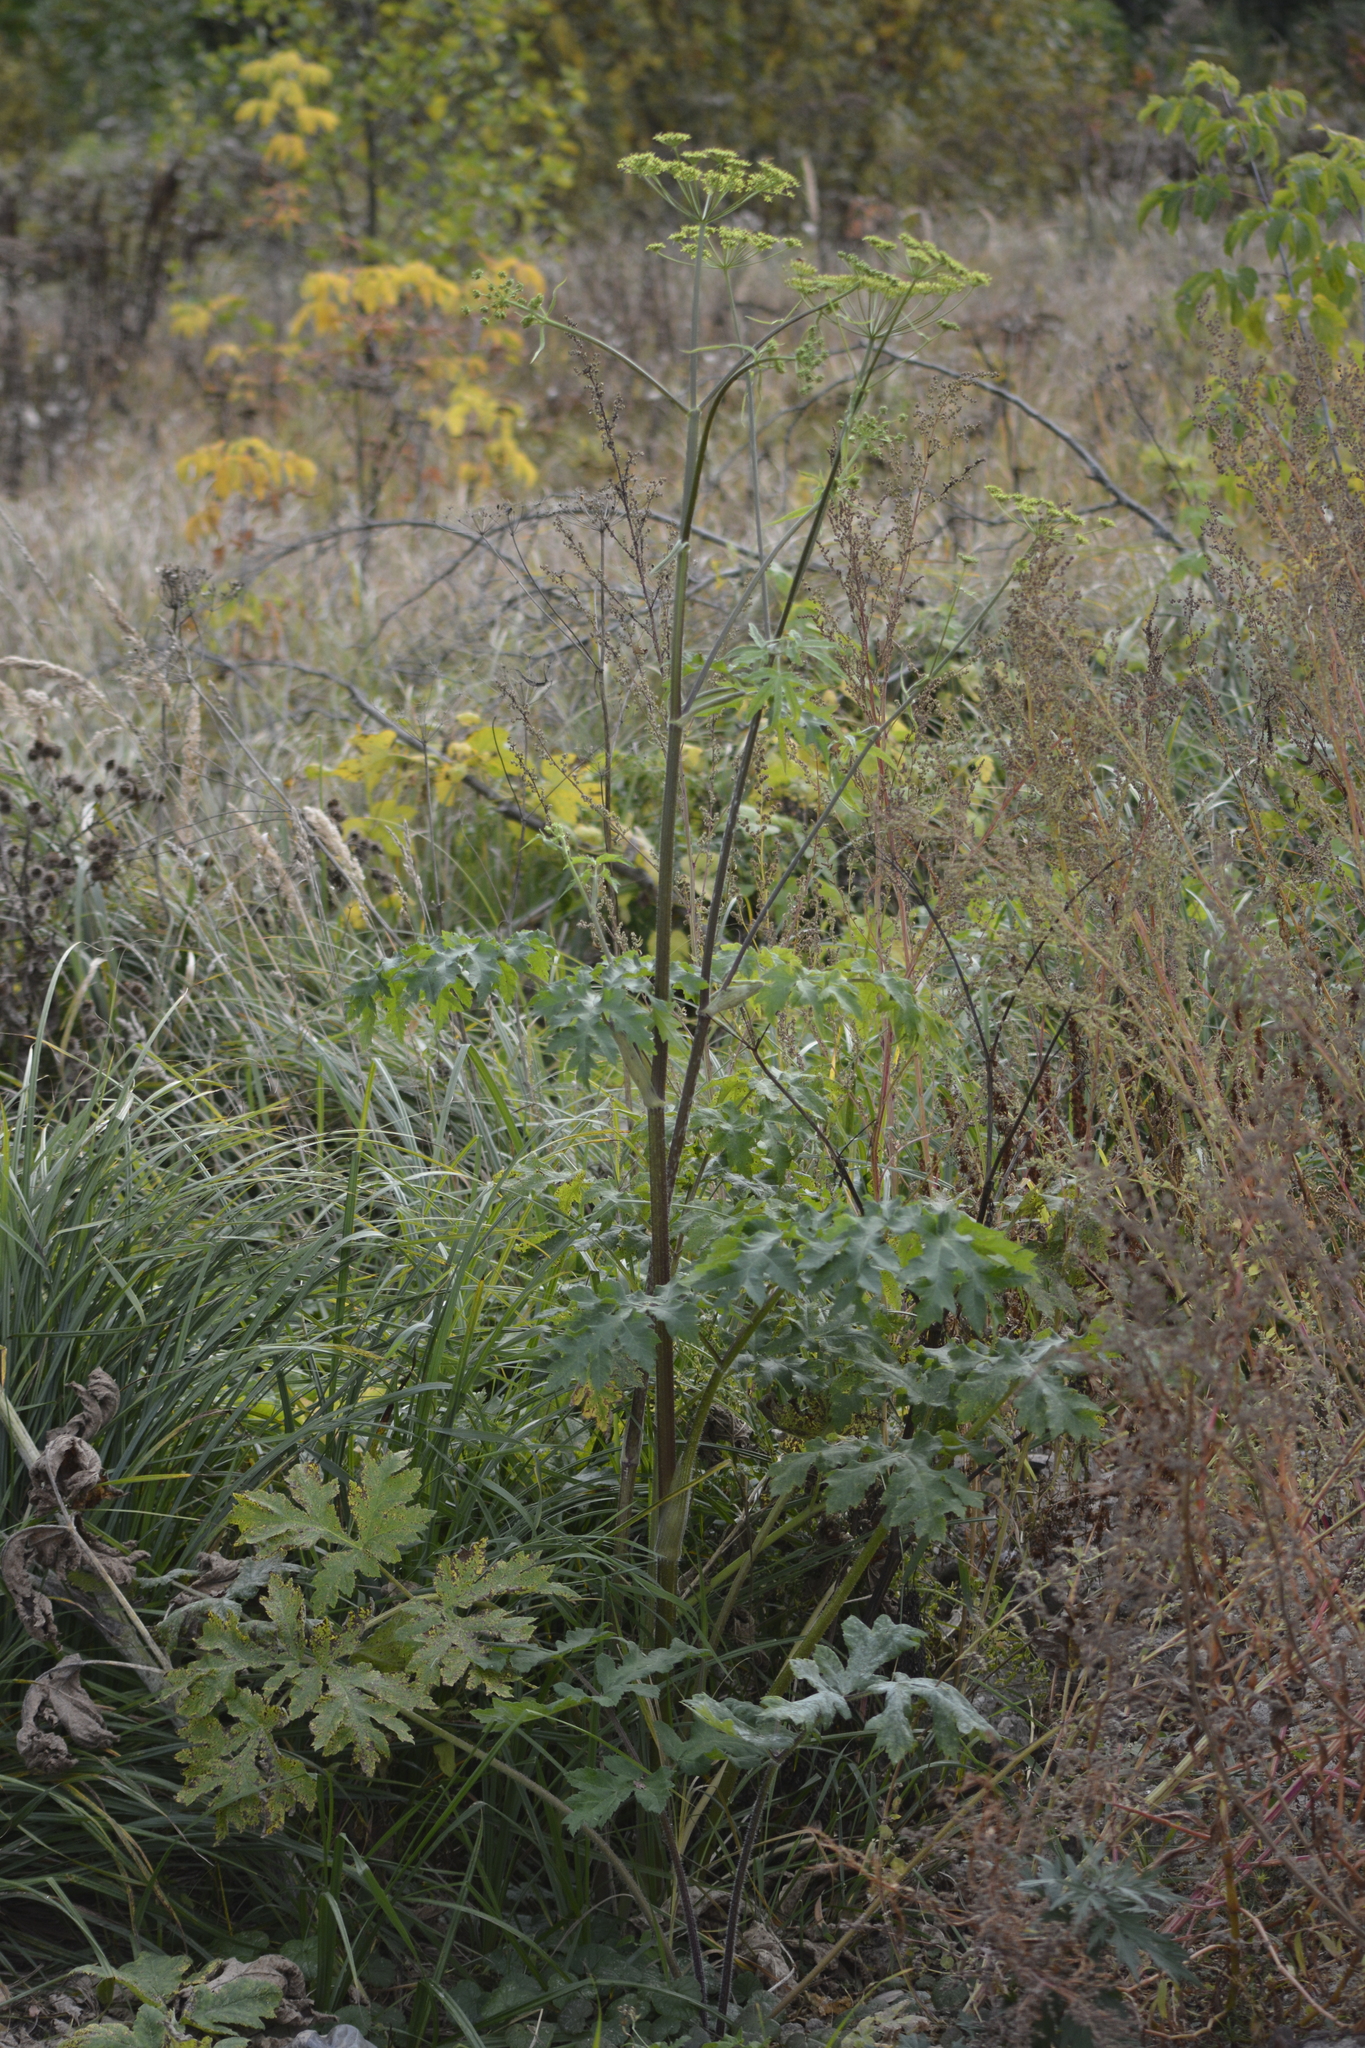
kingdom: Plantae
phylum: Tracheophyta
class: Magnoliopsida
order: Apiales
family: Apiaceae
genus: Heracleum
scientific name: Heracleum sphondylium
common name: Hogweed
